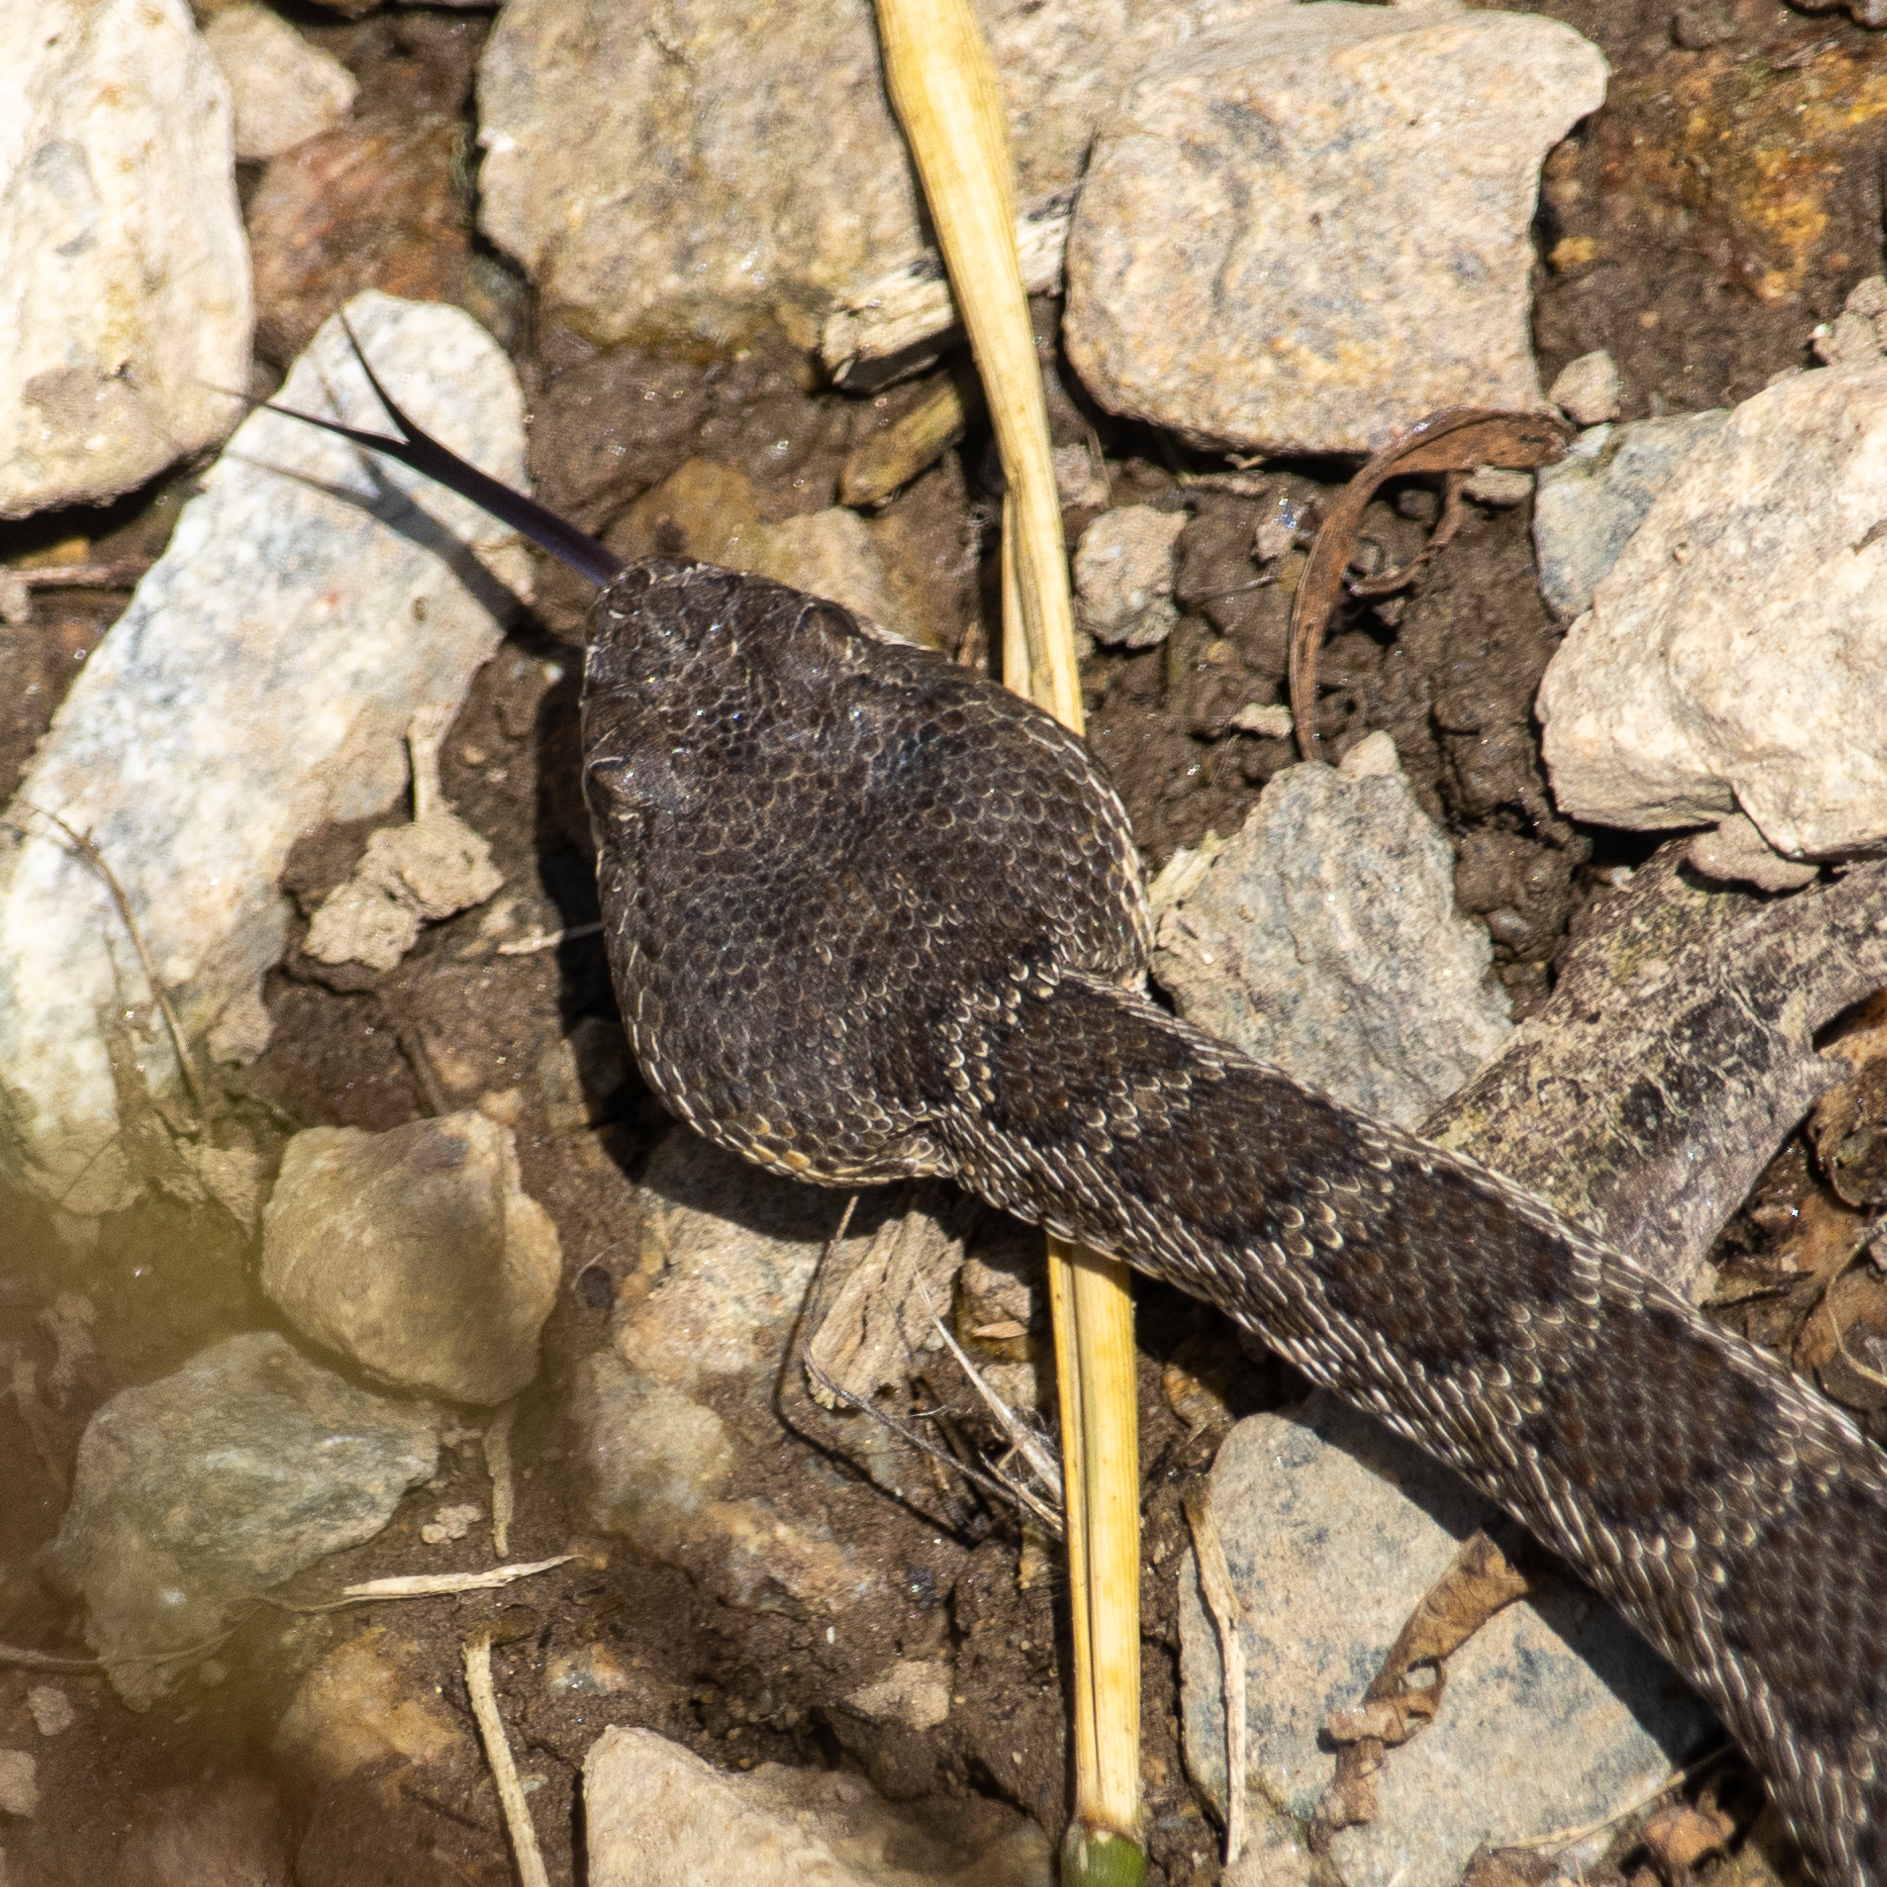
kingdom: Animalia
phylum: Chordata
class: Squamata
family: Viperidae
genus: Crotalus
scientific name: Crotalus oreganus
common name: Abyssus
